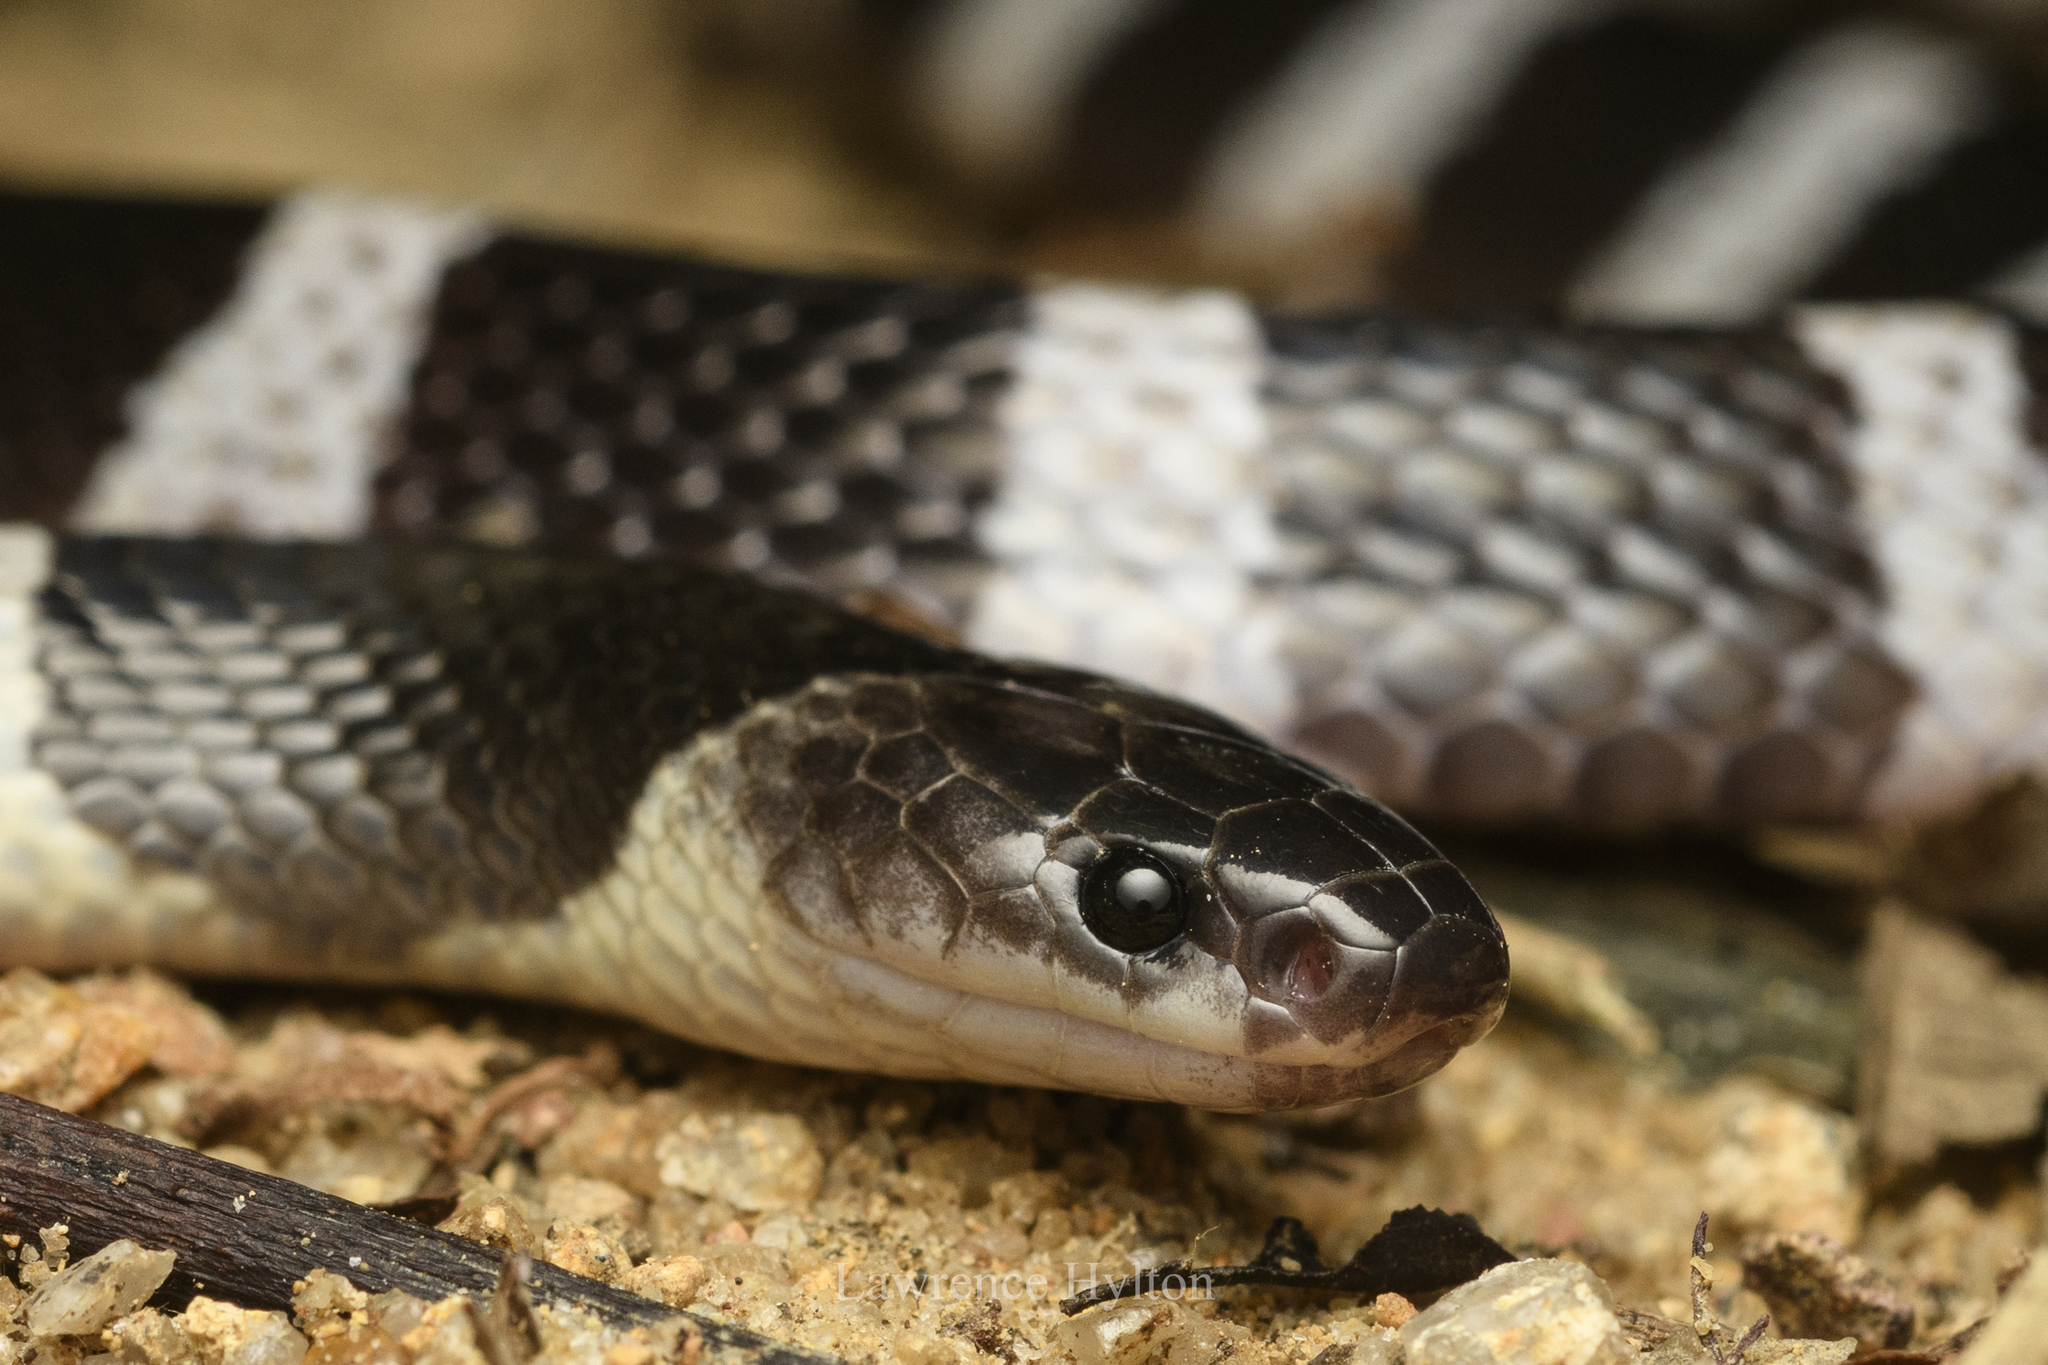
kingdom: Animalia
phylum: Chordata
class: Squamata
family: Elapidae
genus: Bungarus
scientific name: Bungarus multicinctus
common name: Many-banded krait
